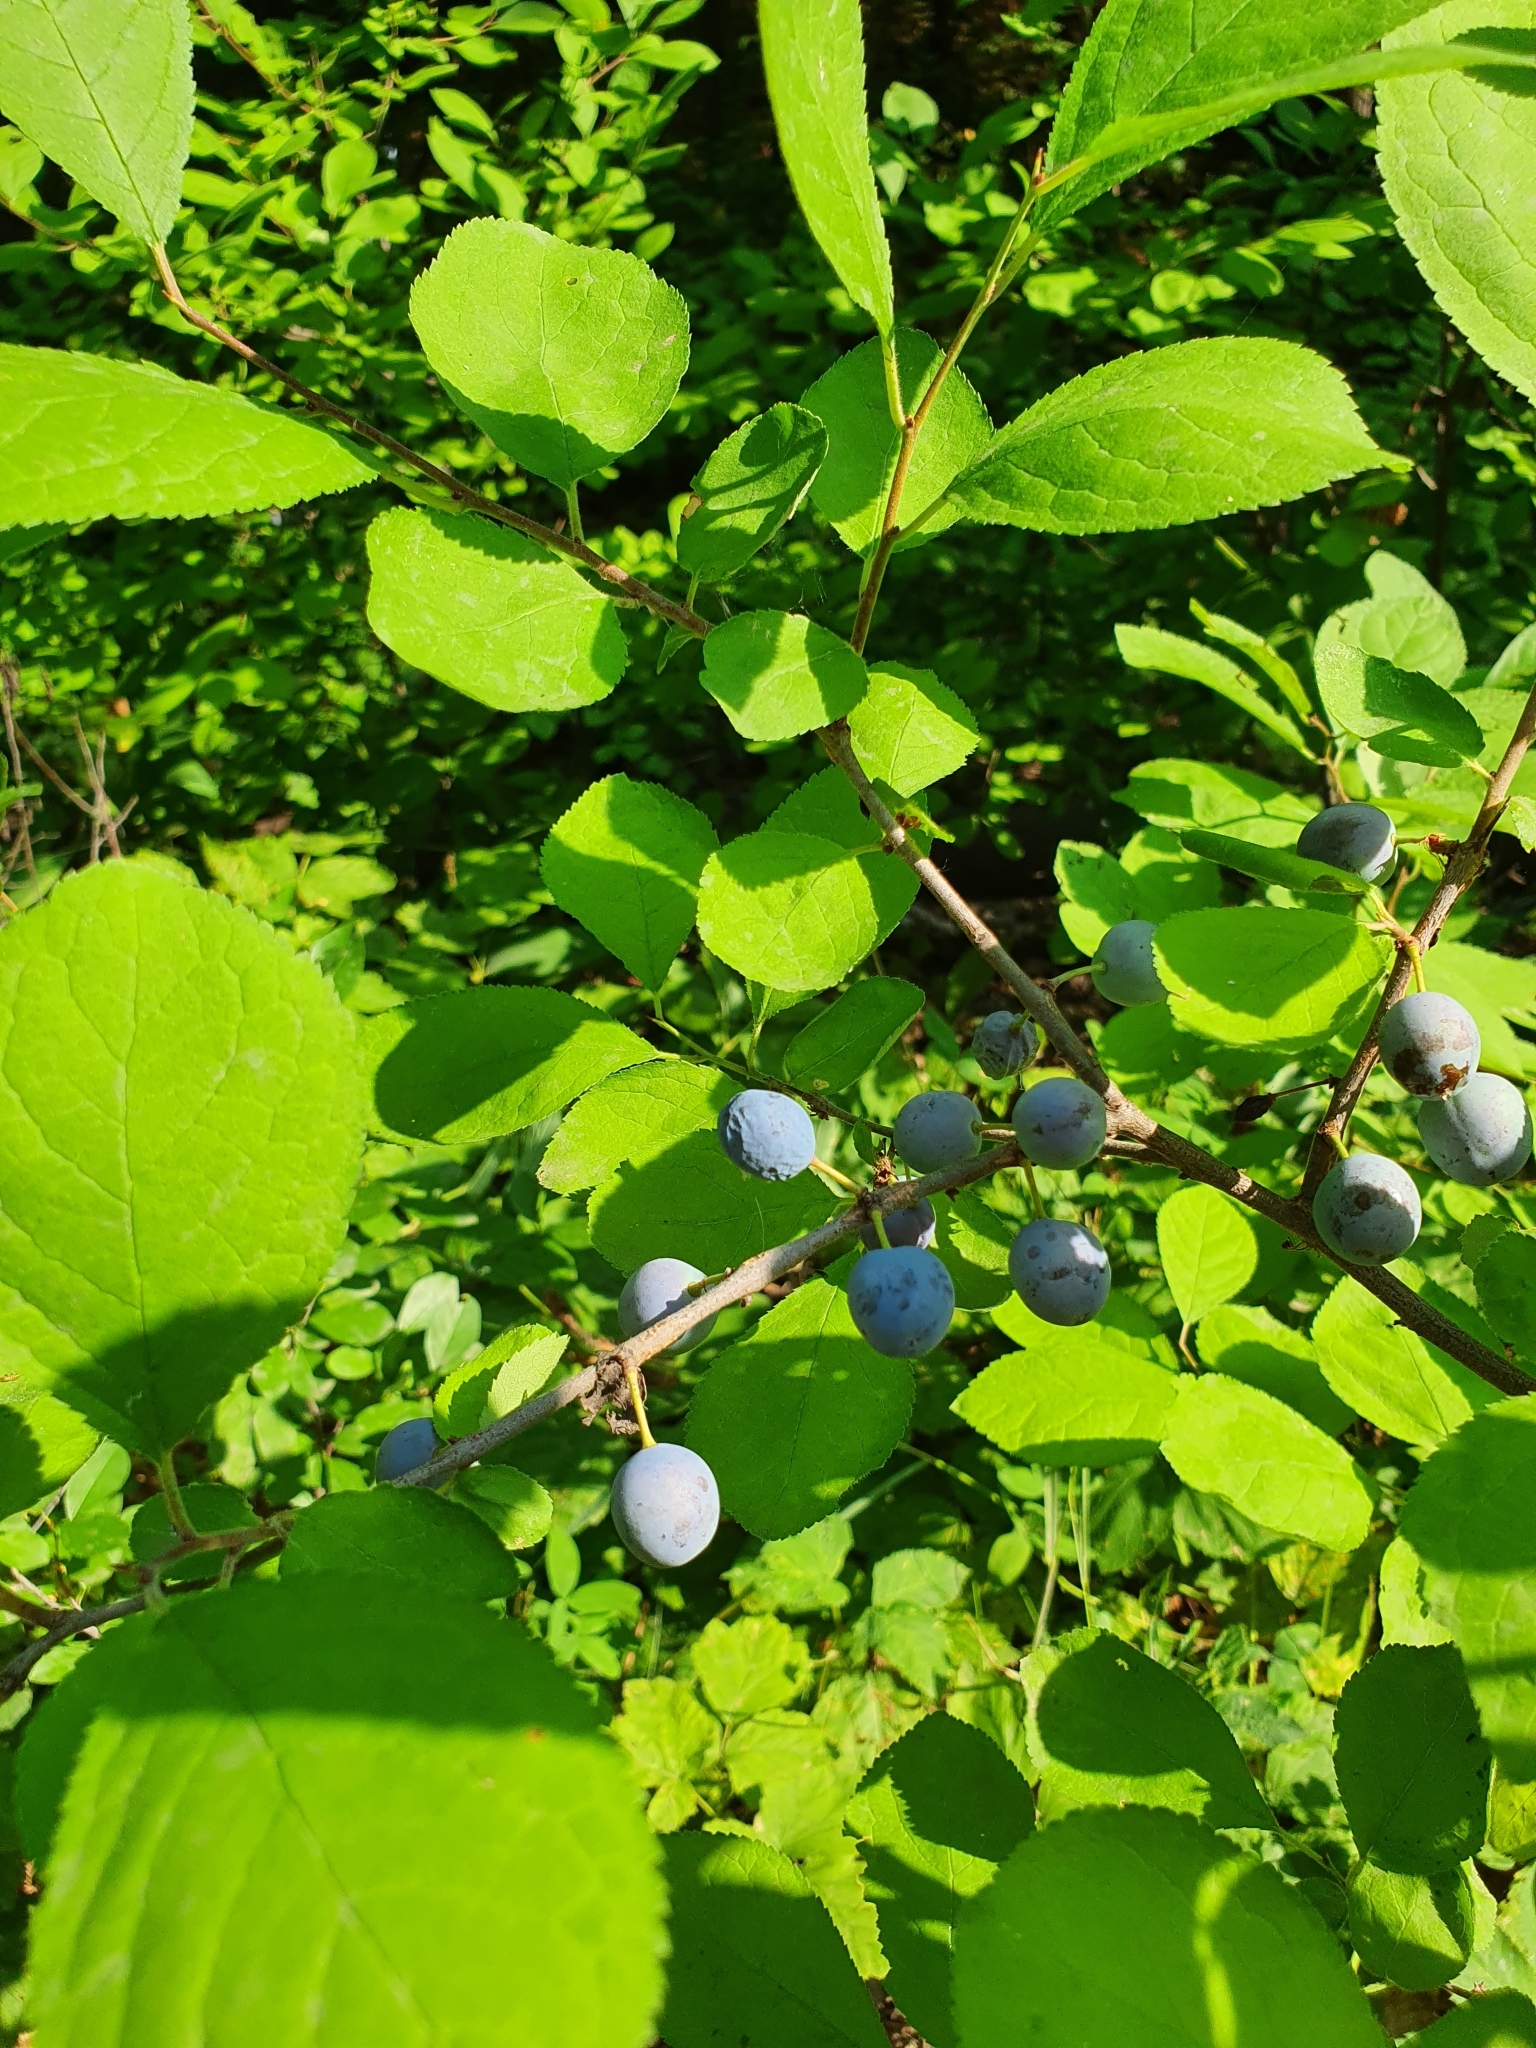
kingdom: Plantae
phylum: Tracheophyta
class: Magnoliopsida
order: Rosales
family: Rosaceae
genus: Prunus
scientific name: Prunus spinosa
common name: Blackthorn
